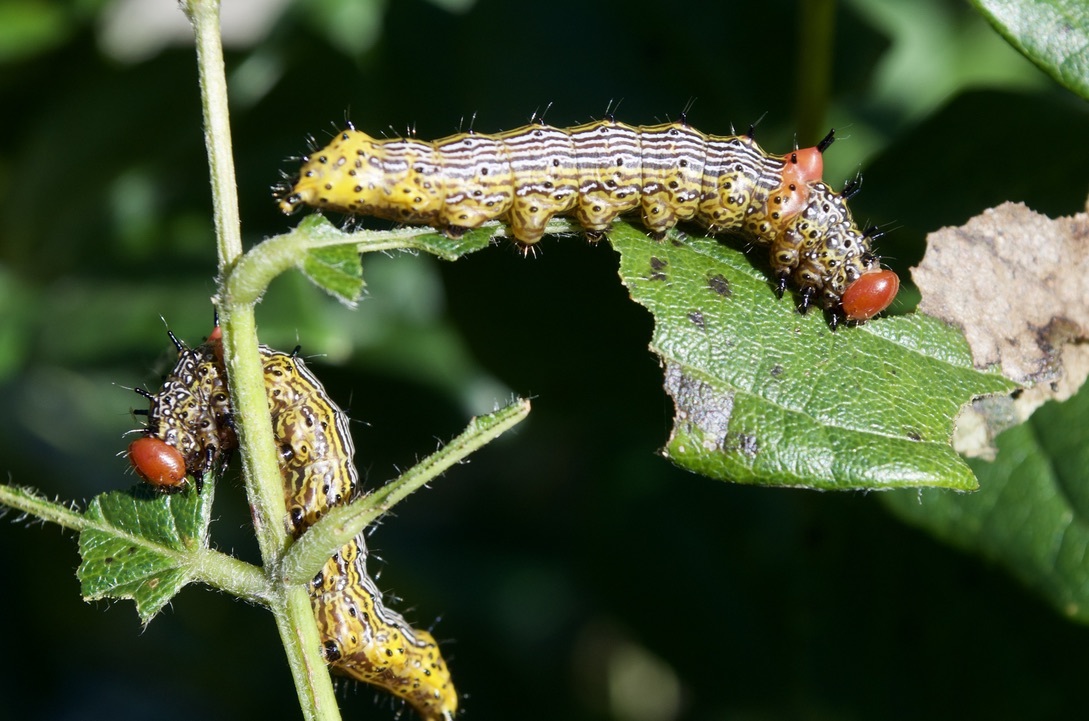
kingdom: Animalia
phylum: Arthropoda
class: Insecta
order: Lepidoptera
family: Notodontidae
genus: Schizura
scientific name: Schizura
